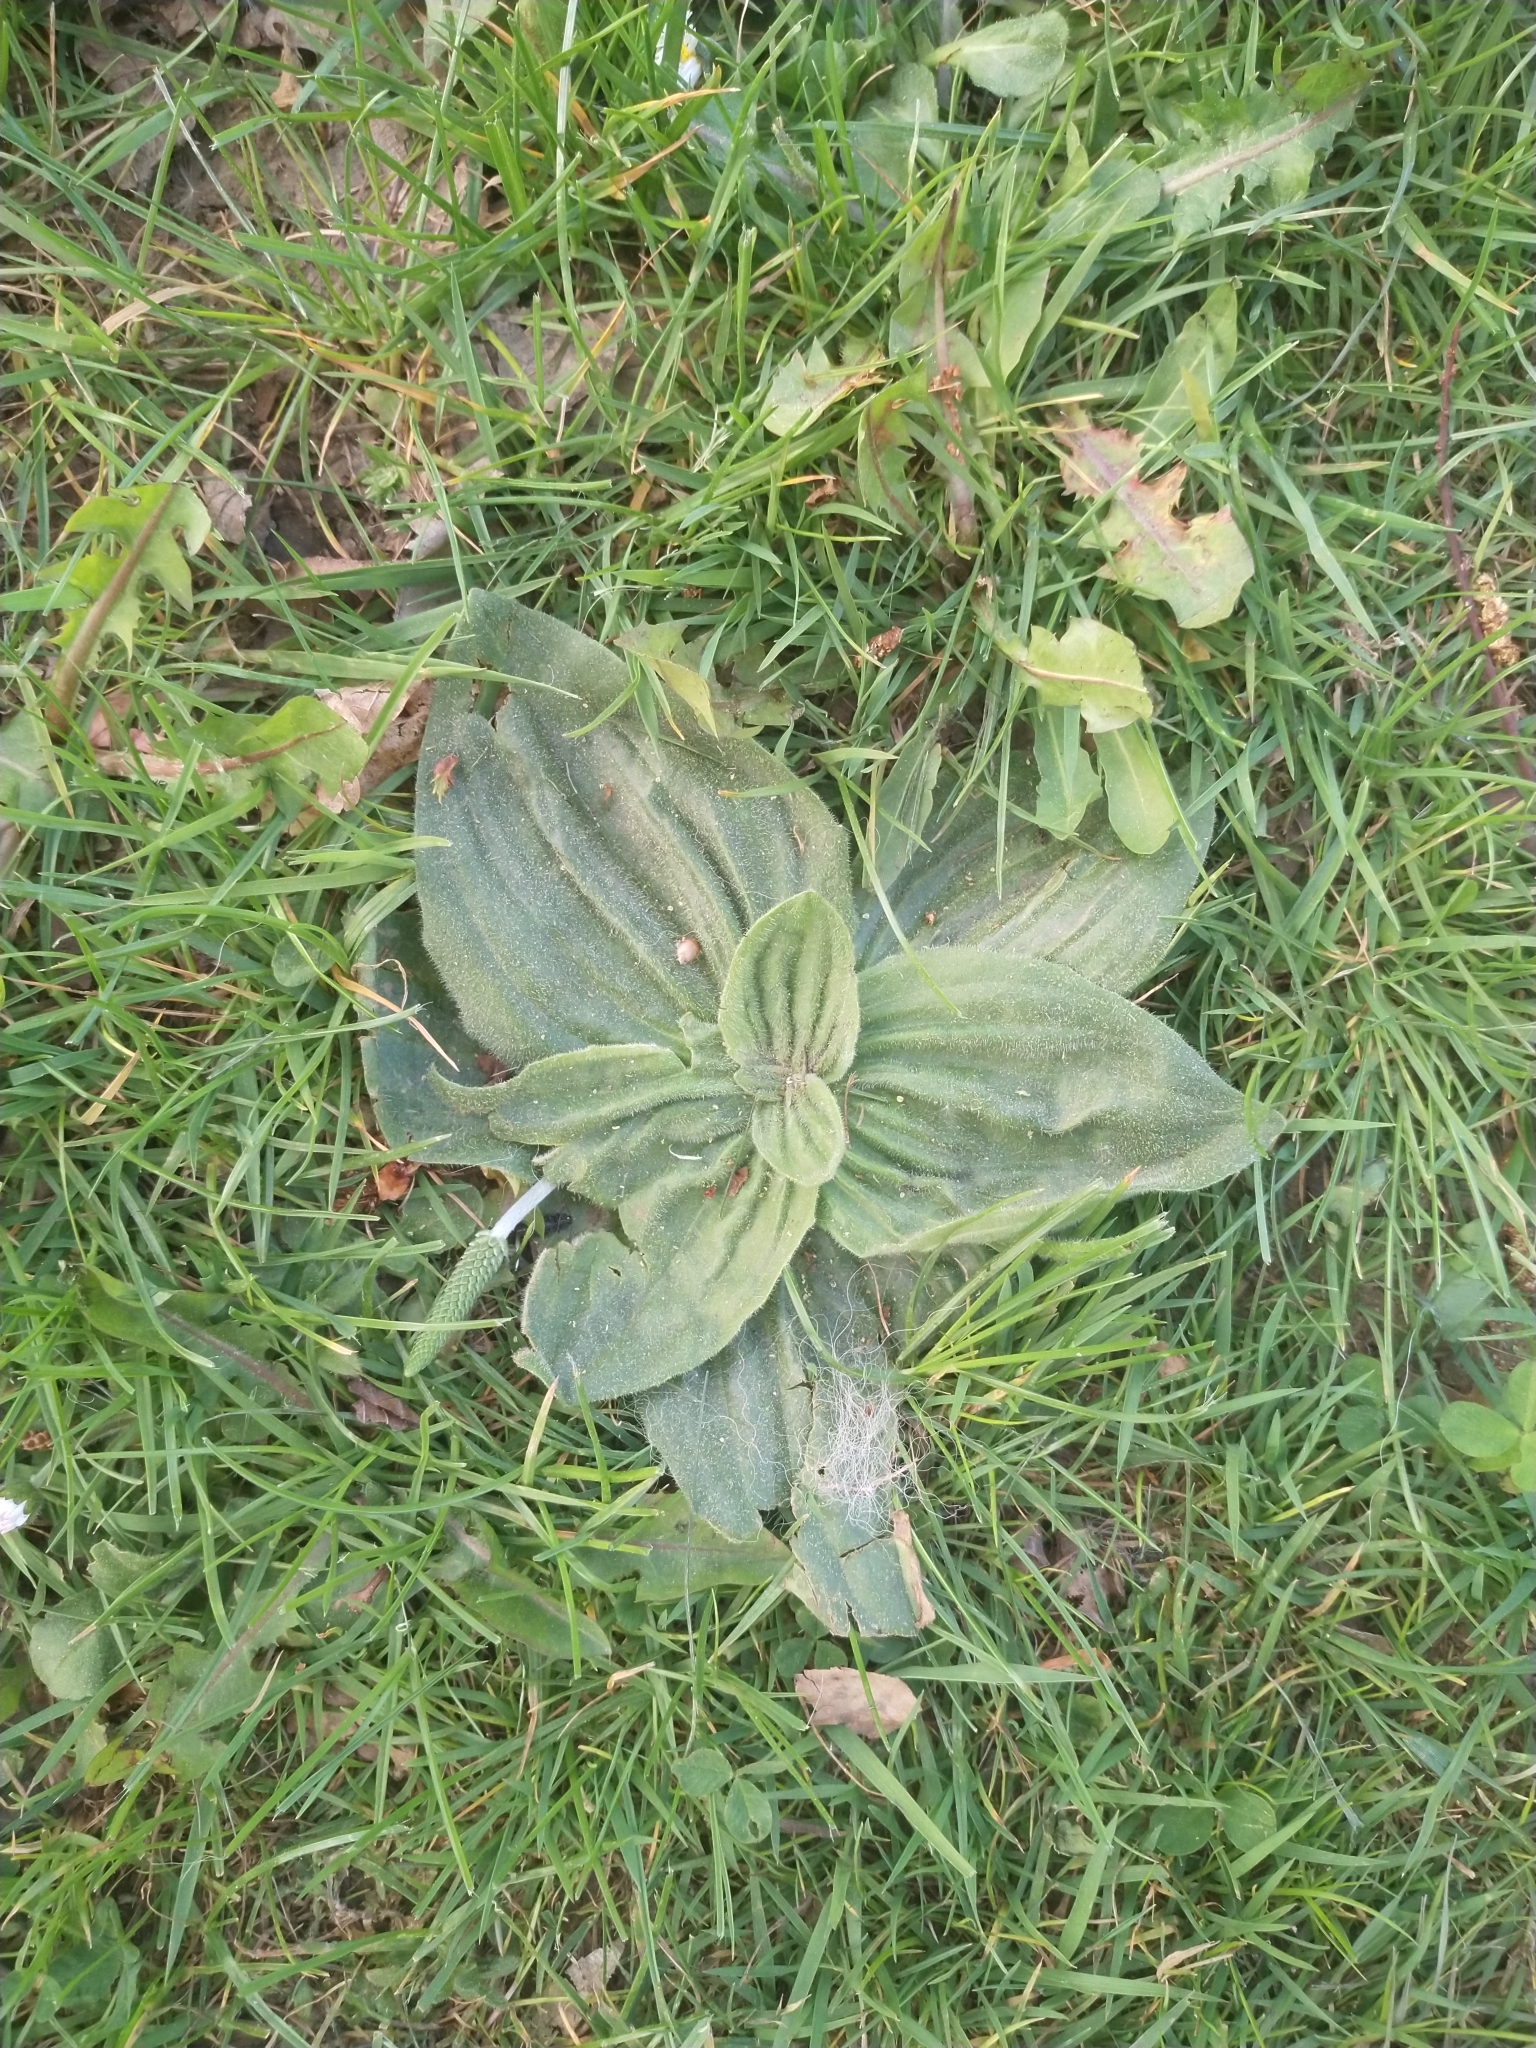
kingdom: Plantae
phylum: Tracheophyta
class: Magnoliopsida
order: Lamiales
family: Plantaginaceae
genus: Plantago
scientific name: Plantago media
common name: Hoary plantain
